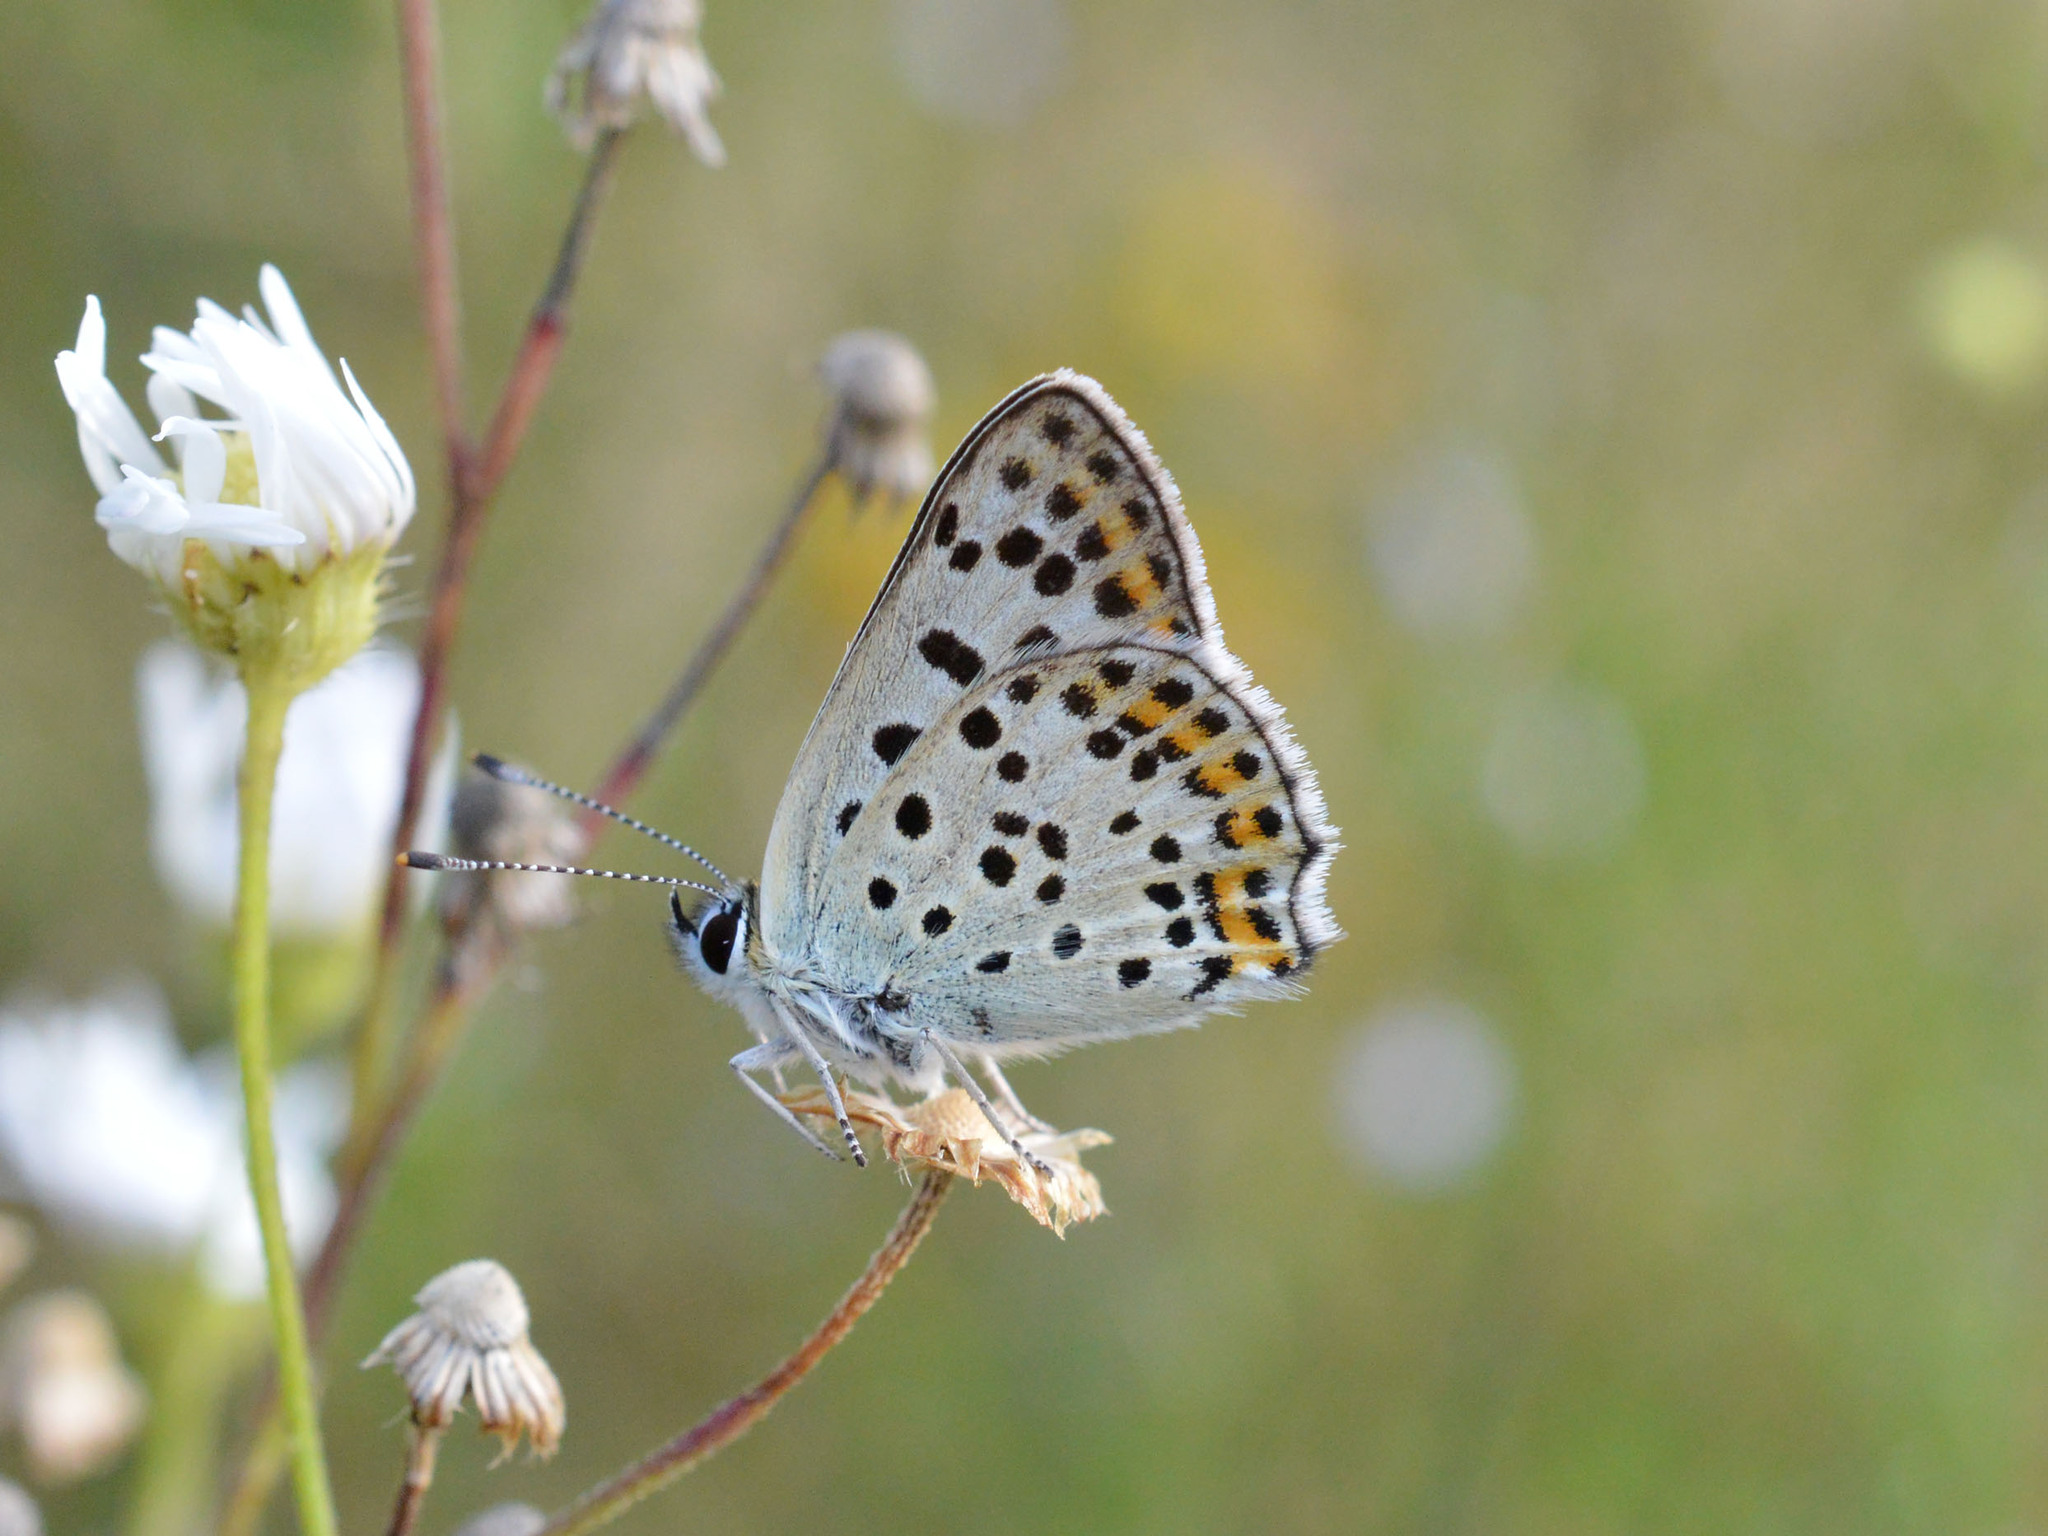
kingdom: Animalia
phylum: Arthropoda
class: Insecta
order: Lepidoptera
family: Lycaenidae
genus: Loweia
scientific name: Loweia tityrus
